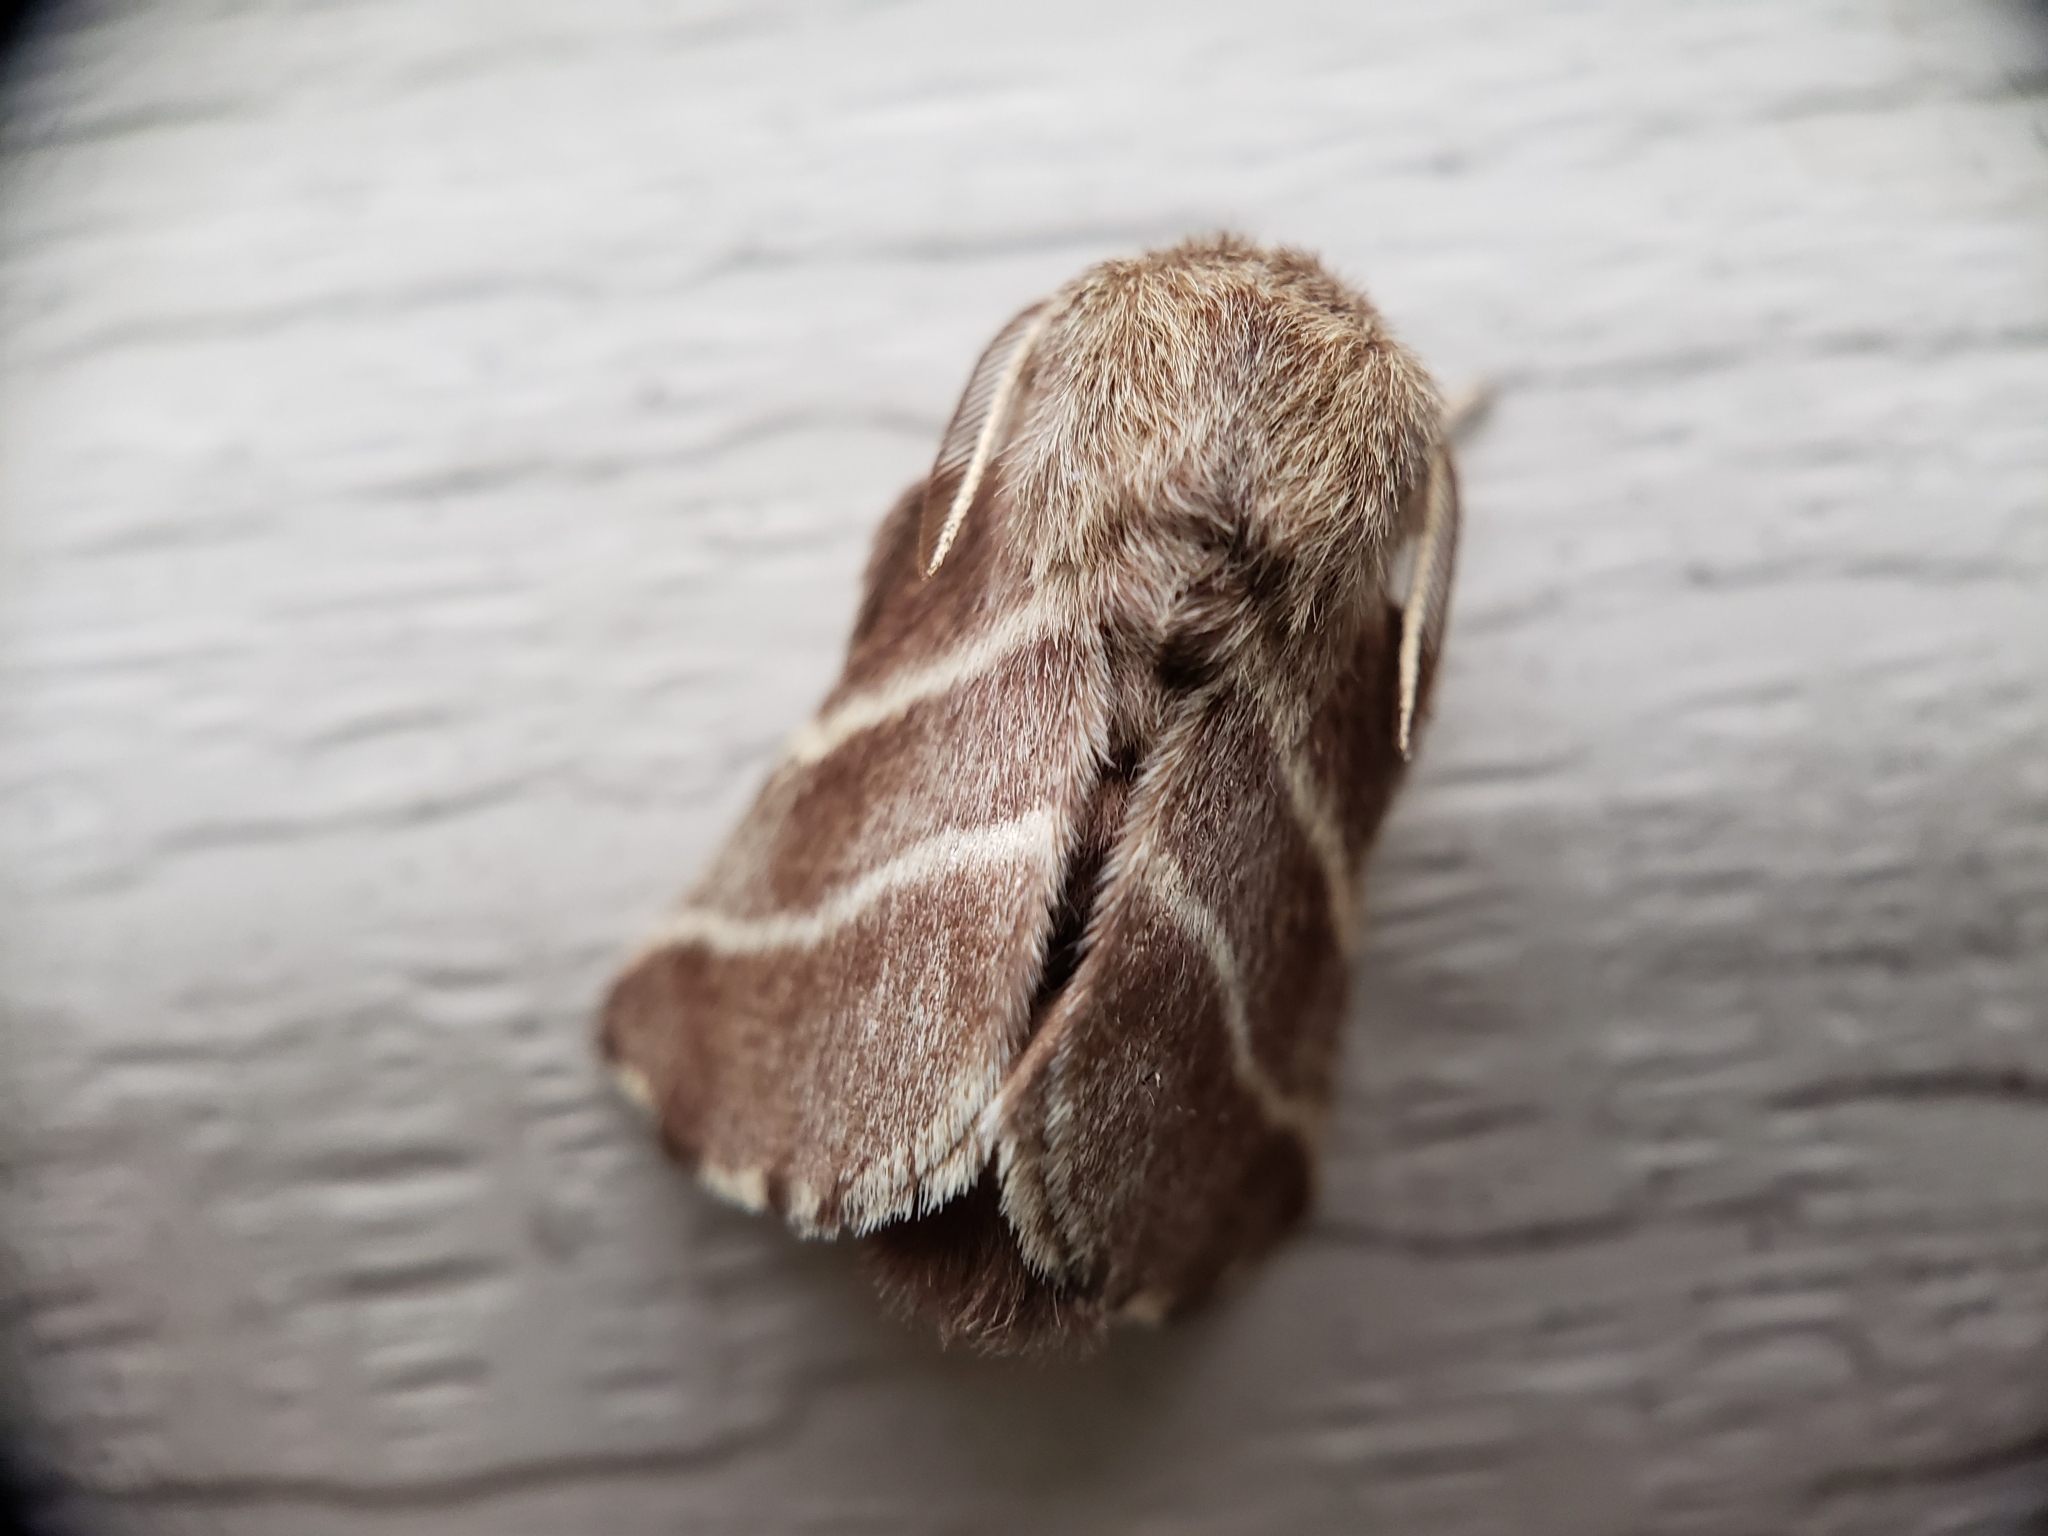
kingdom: Animalia
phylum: Arthropoda
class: Insecta
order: Lepidoptera
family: Lasiocampidae
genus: Malacosoma
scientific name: Malacosoma americana
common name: Eastern tent caterpillar moth
